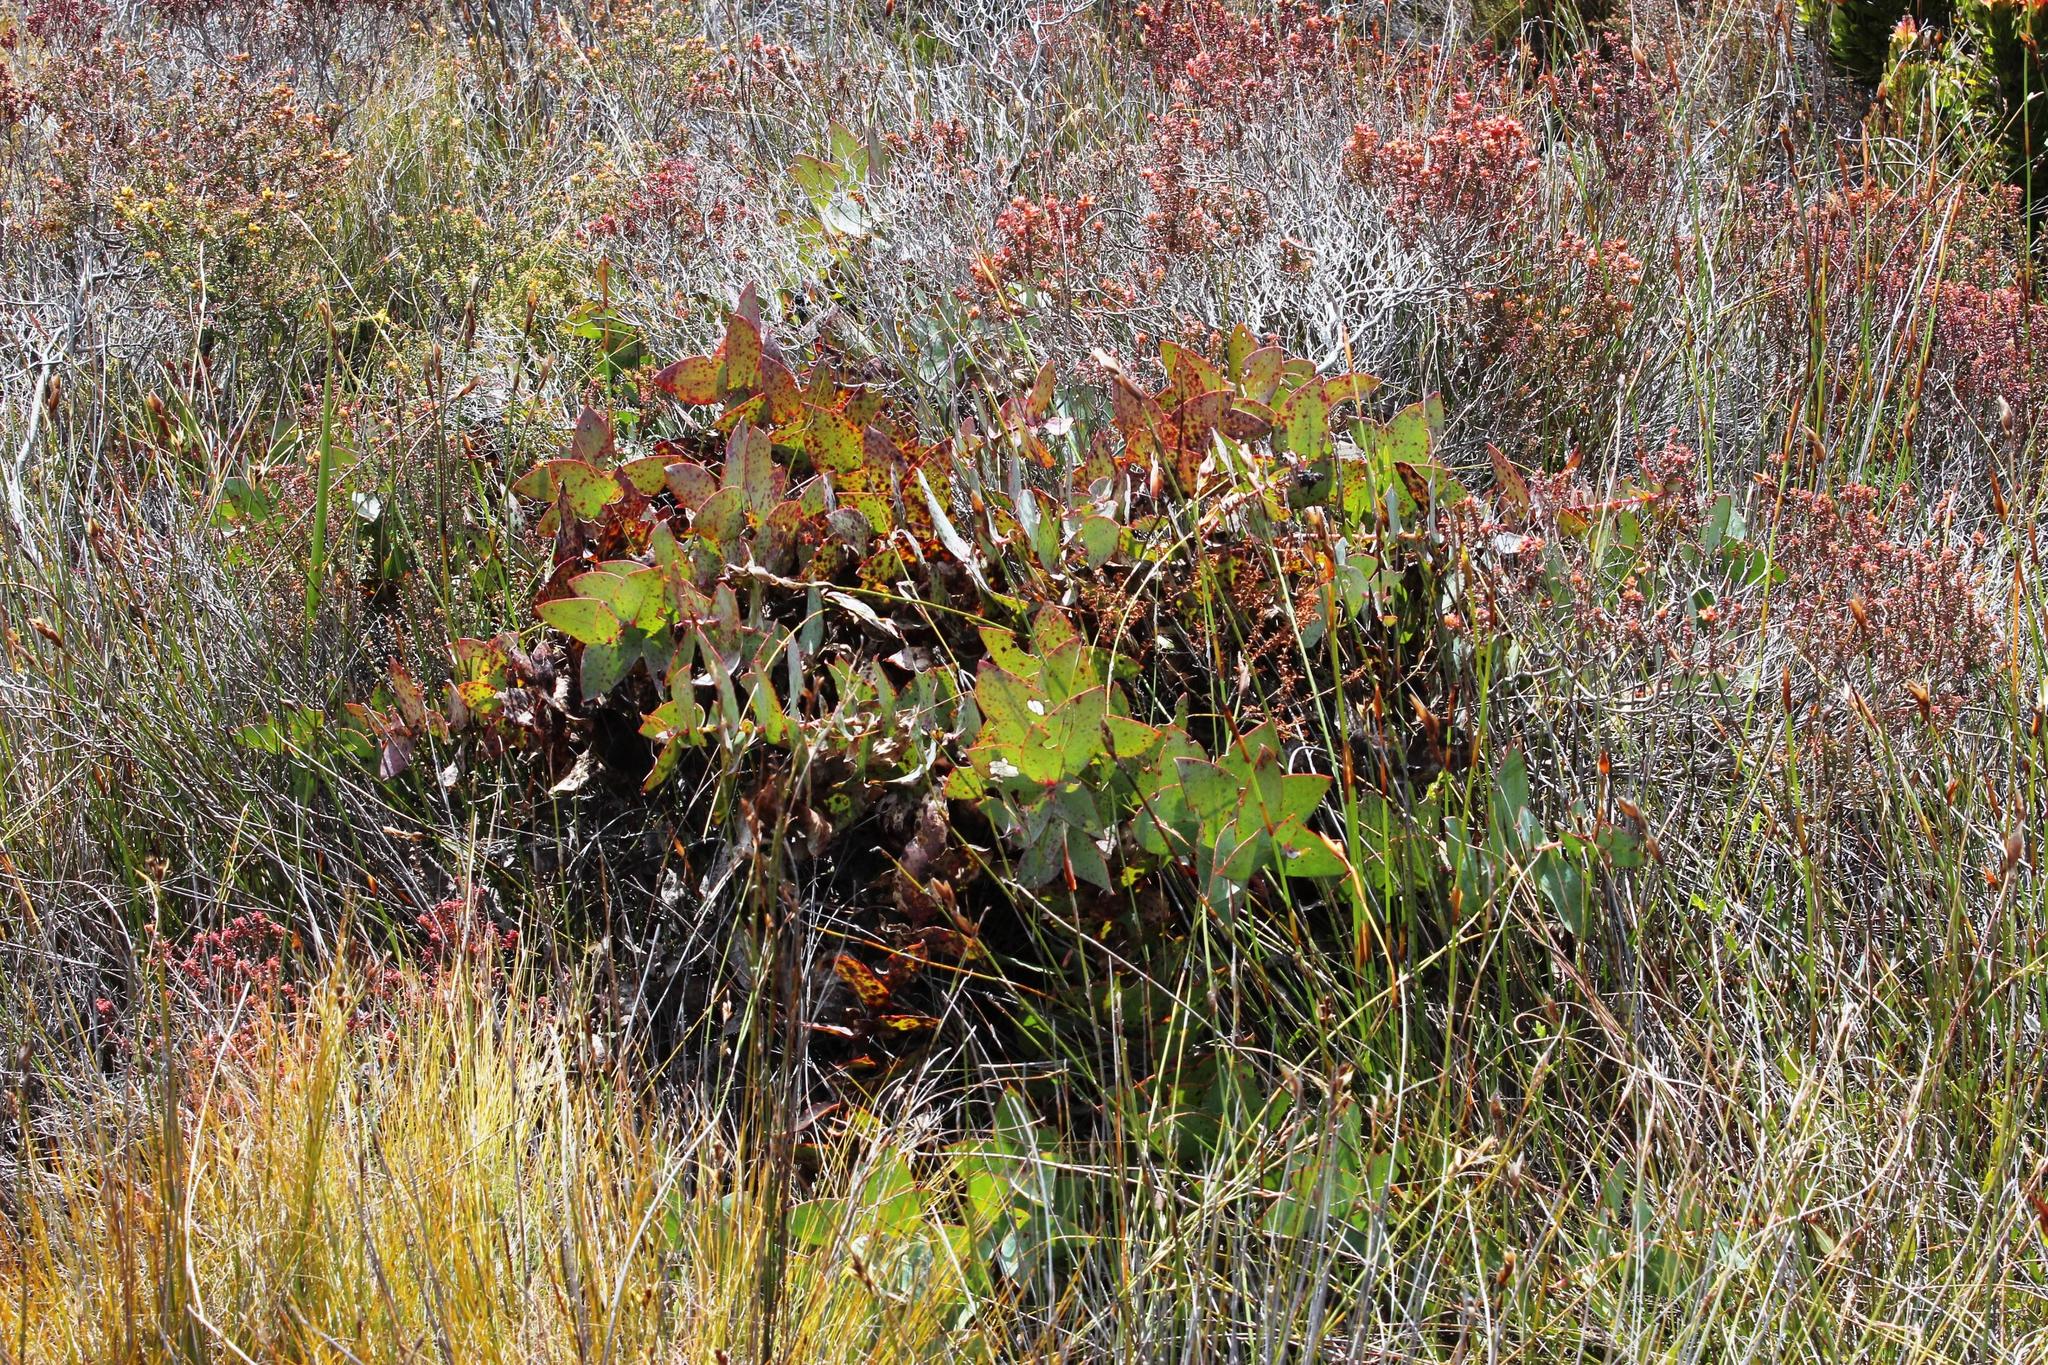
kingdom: Plantae
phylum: Tracheophyta
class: Magnoliopsida
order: Proteales
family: Proteaceae
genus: Protea
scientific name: Protea amplexicaulis
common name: Clasping-leaf sugarbush
